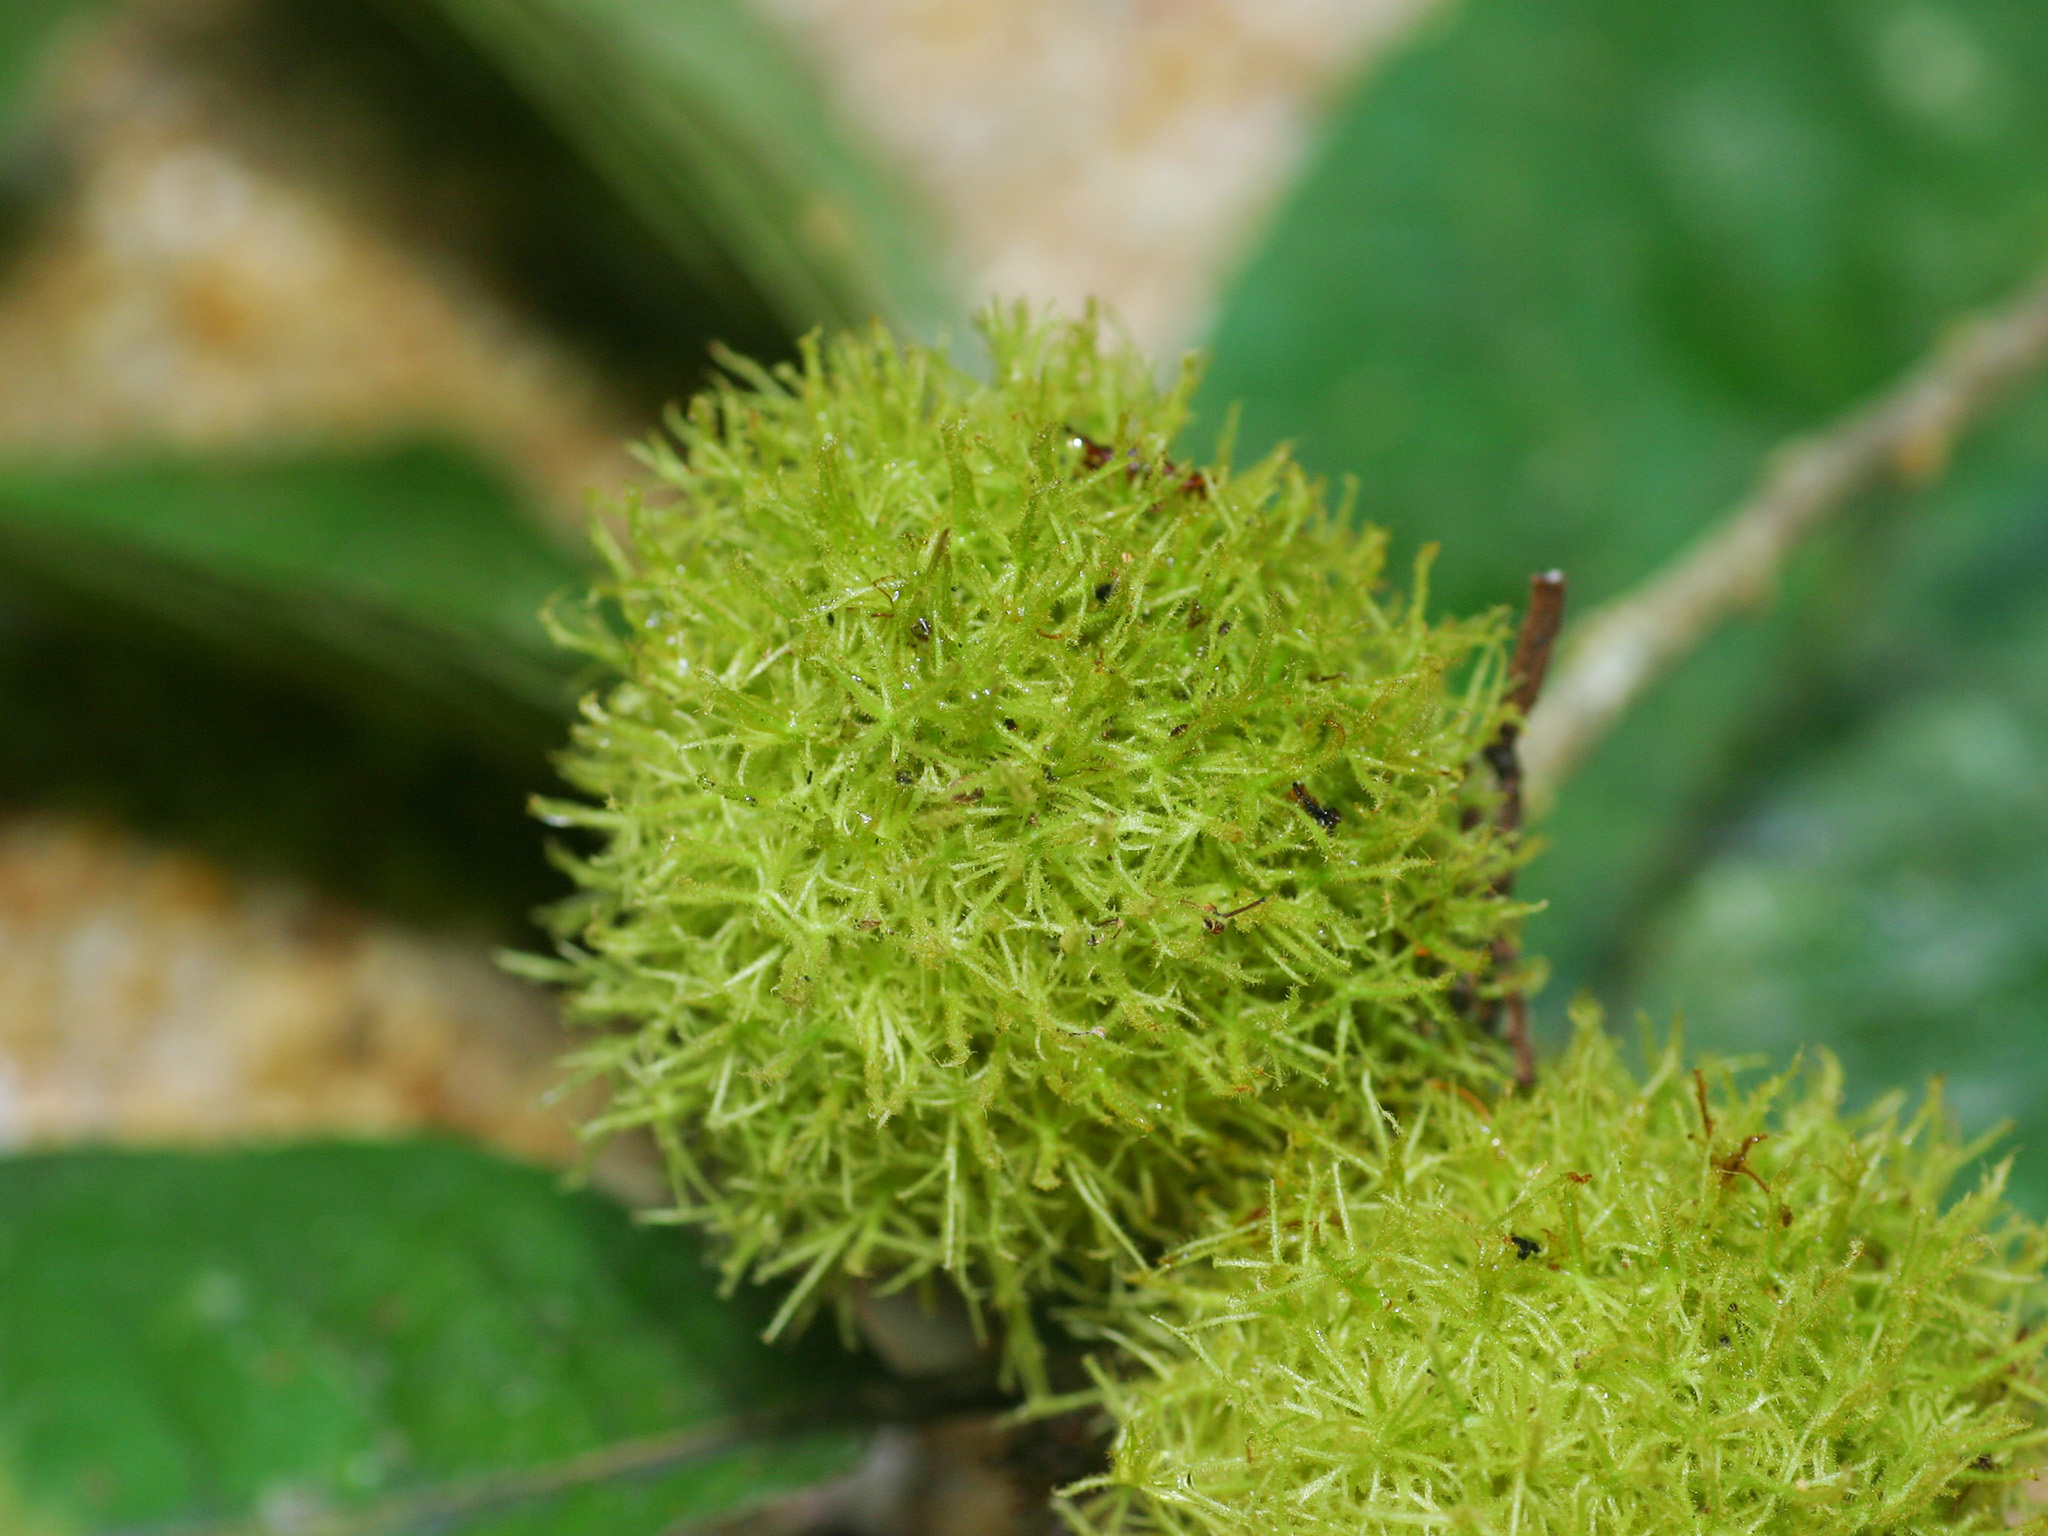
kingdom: Plantae
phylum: Tracheophyta
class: Magnoliopsida
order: Malpighiales
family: Violaceae
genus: Rinorea
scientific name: Rinorea anguifera
